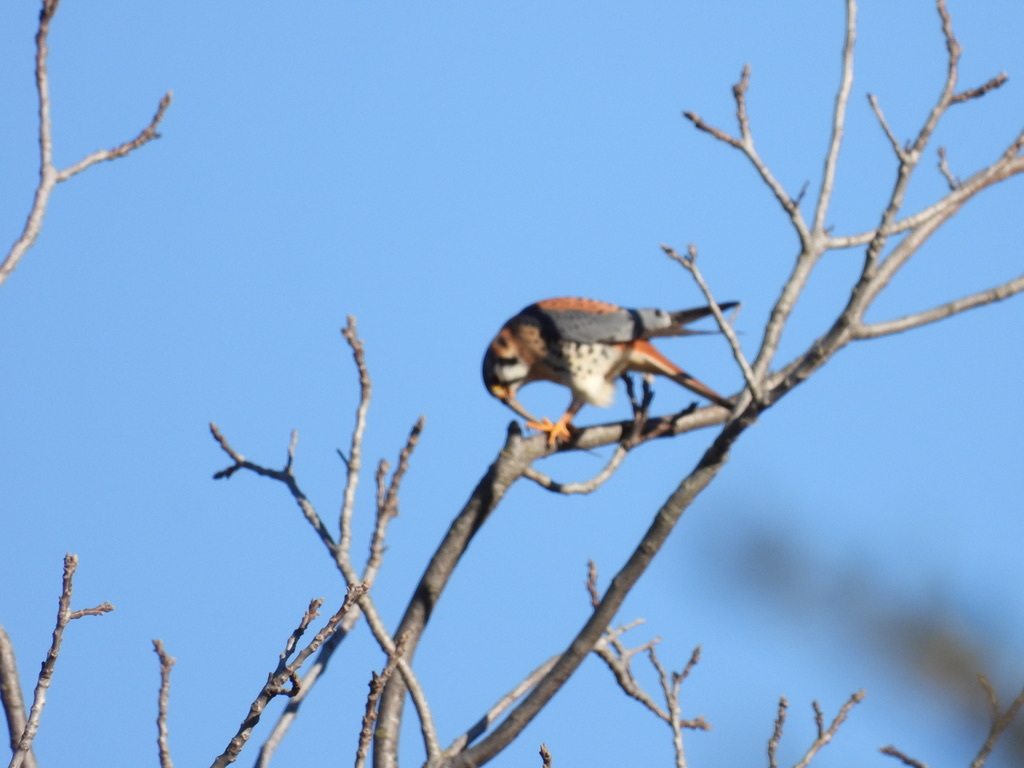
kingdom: Animalia
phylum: Chordata
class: Aves
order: Falconiformes
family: Falconidae
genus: Falco
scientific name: Falco sparverius
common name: American kestrel
